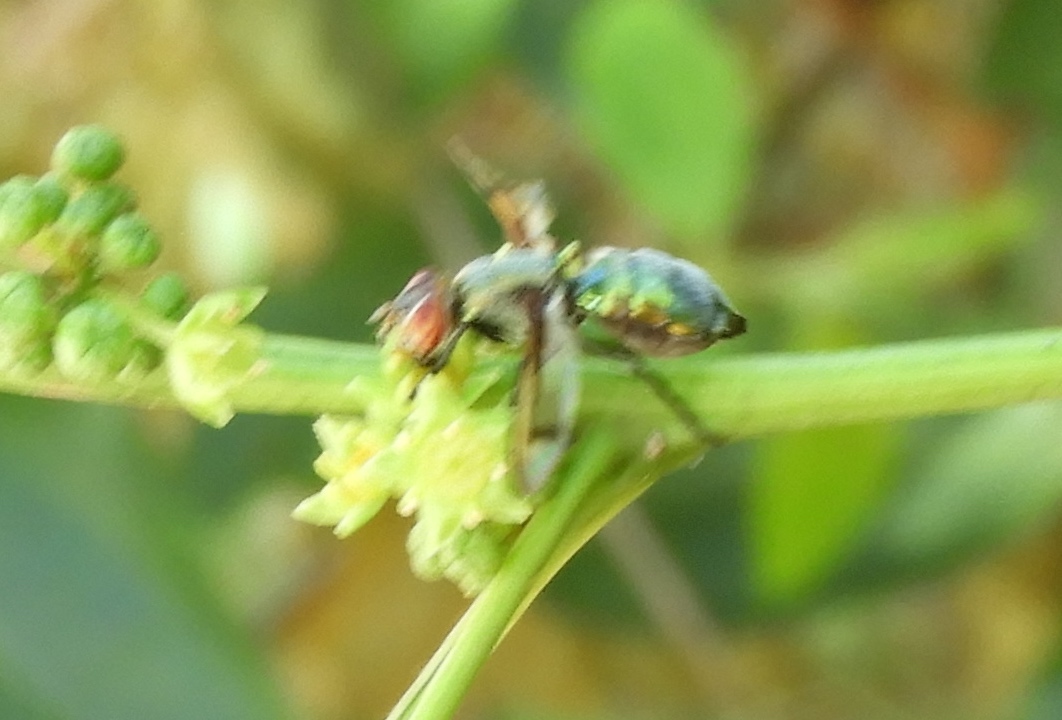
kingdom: Animalia
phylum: Arthropoda
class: Insecta
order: Diptera
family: Platystomatidae
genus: Senopterina
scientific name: Senopterina
